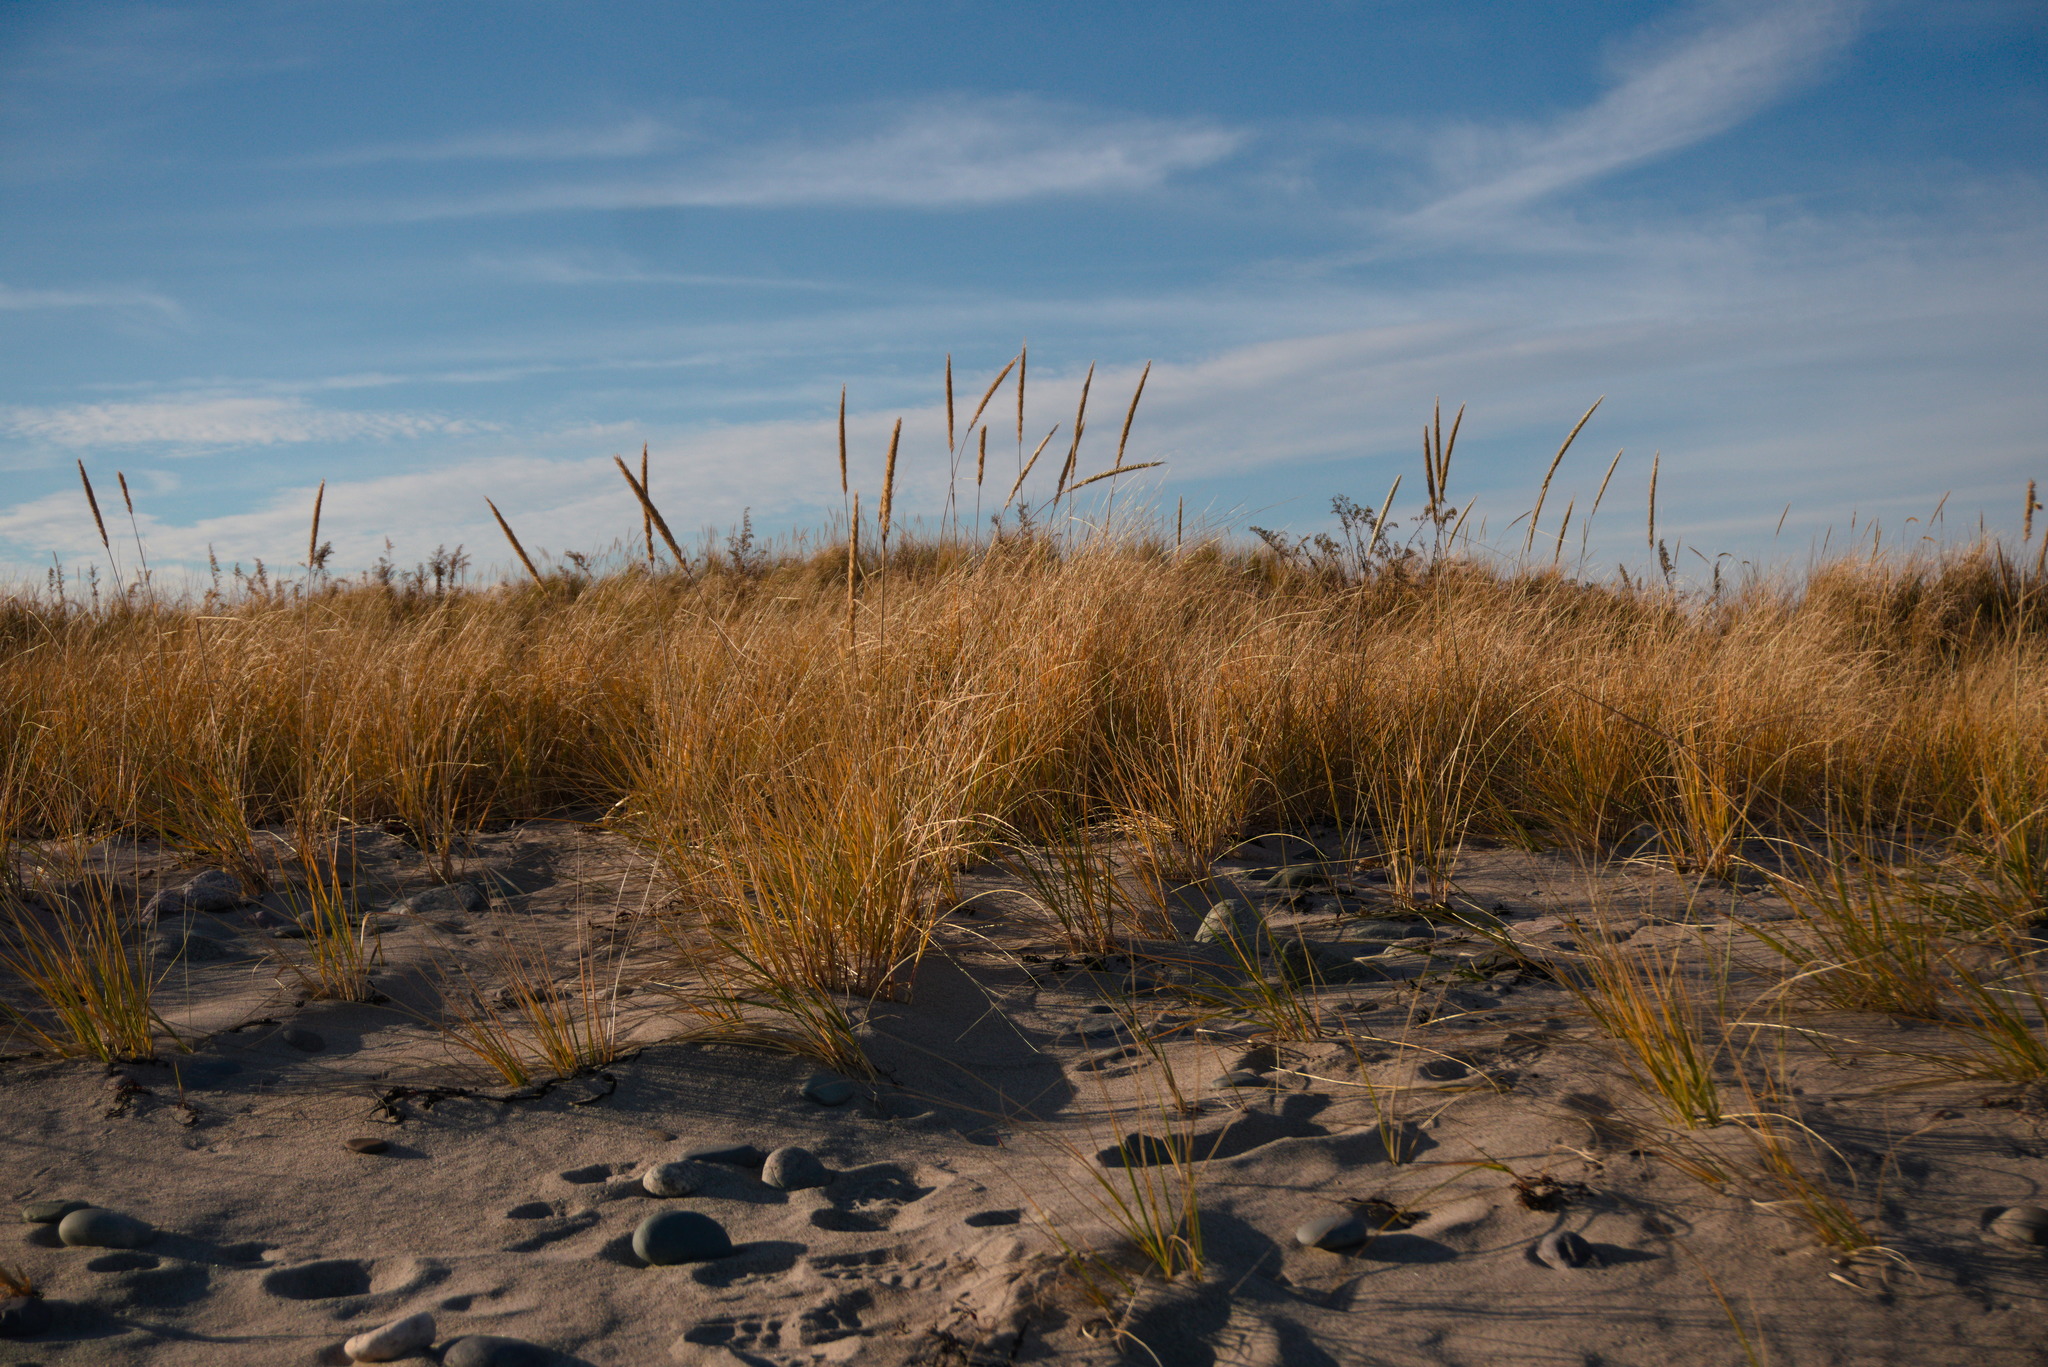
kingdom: Plantae
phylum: Tracheophyta
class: Liliopsida
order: Poales
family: Poaceae
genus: Calamagrostis
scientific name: Calamagrostis breviligulata
